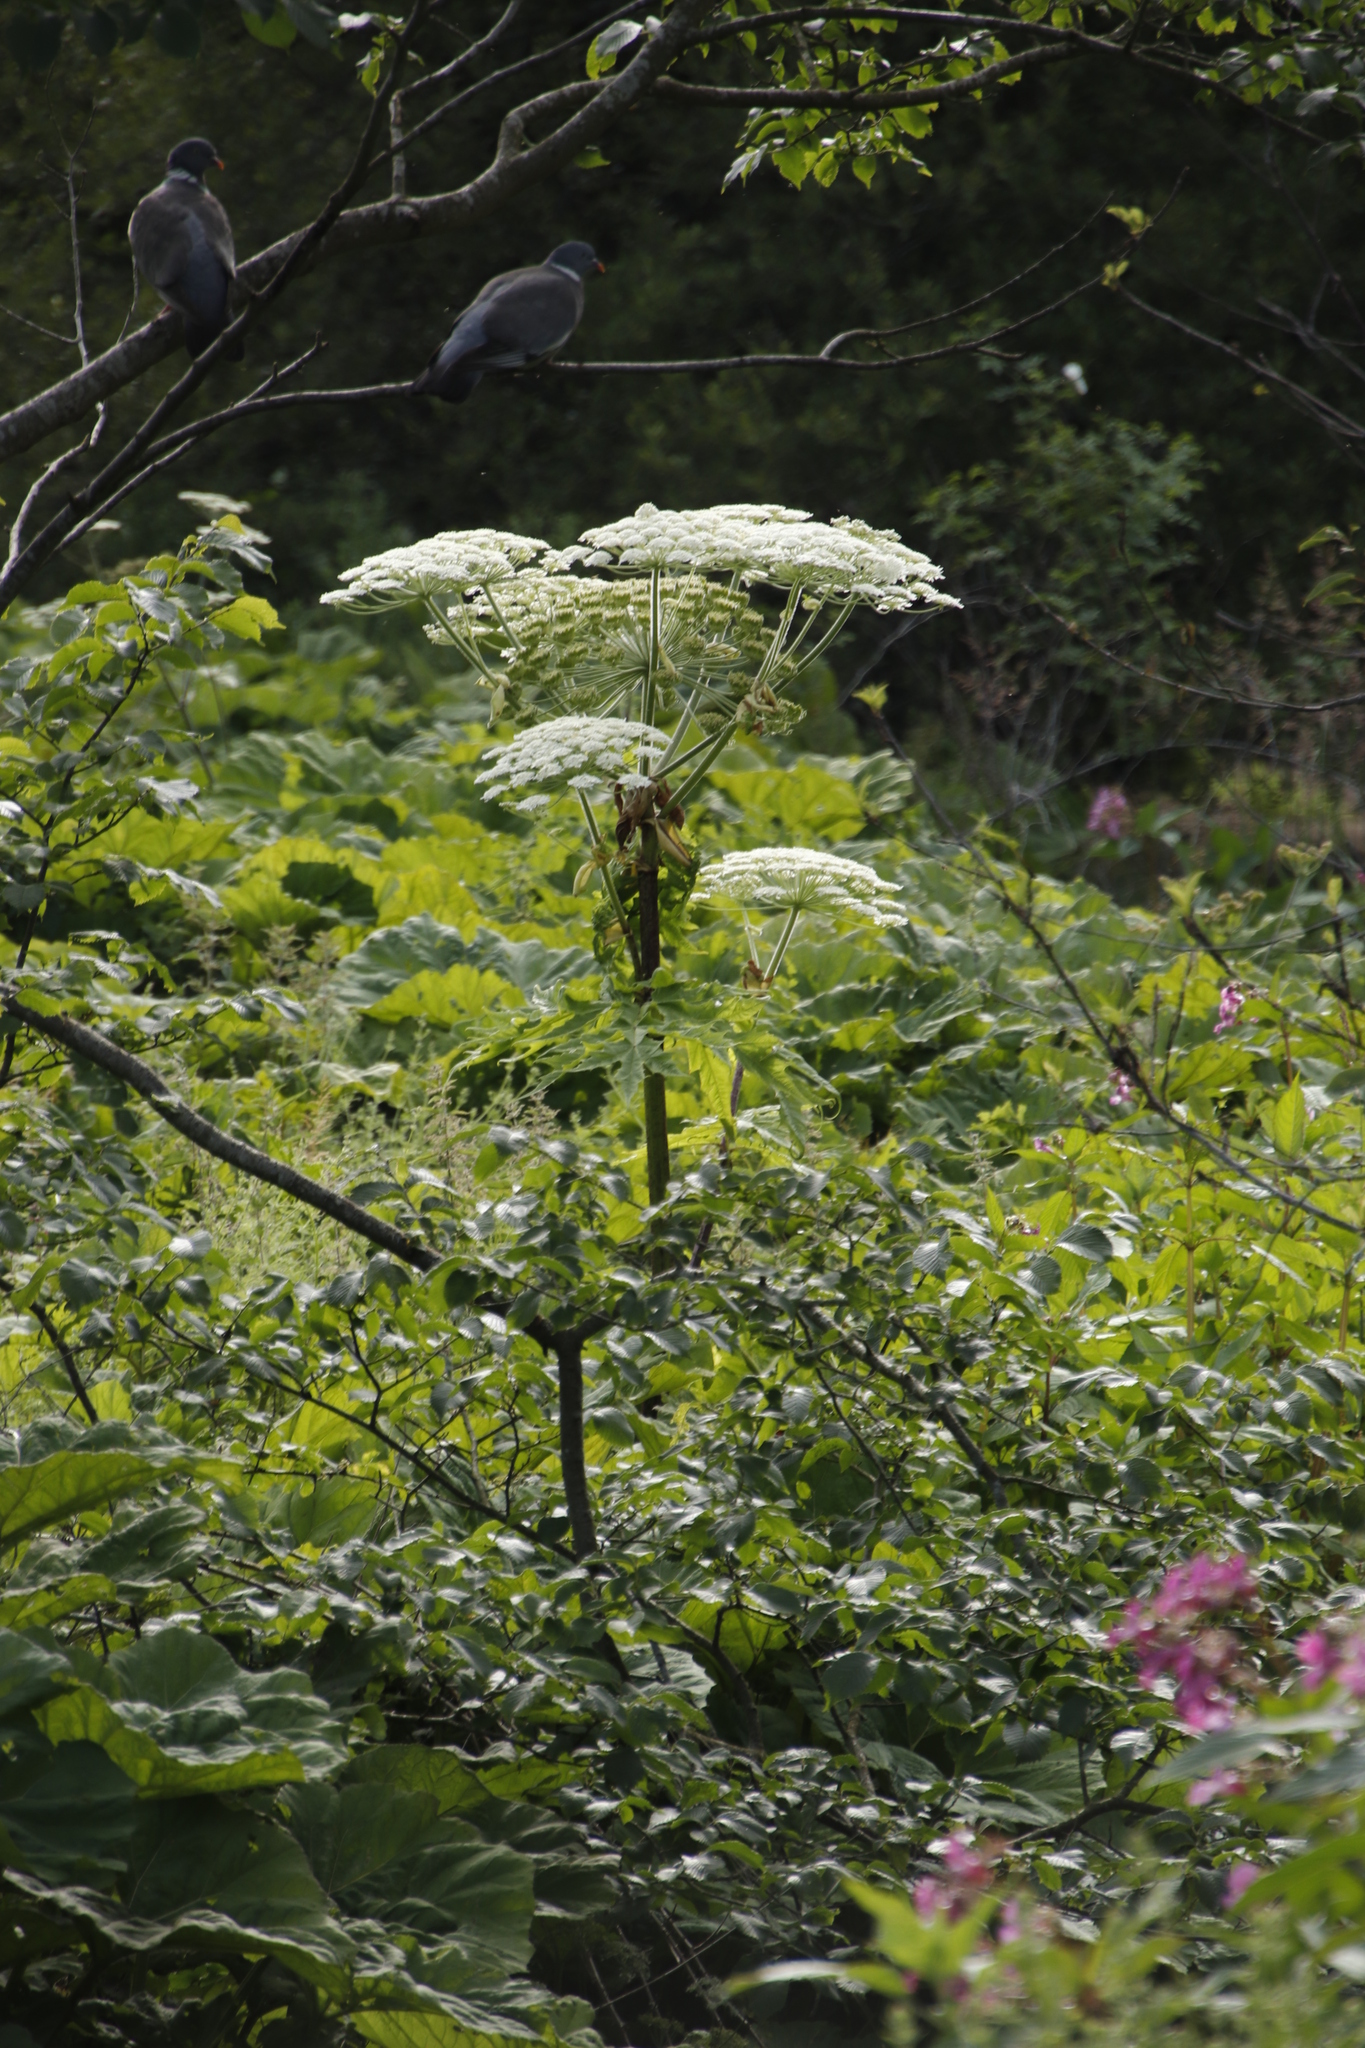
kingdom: Plantae
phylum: Tracheophyta
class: Magnoliopsida
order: Apiales
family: Apiaceae
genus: Heracleum
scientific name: Heracleum mantegazzianum
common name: Giant hogweed
